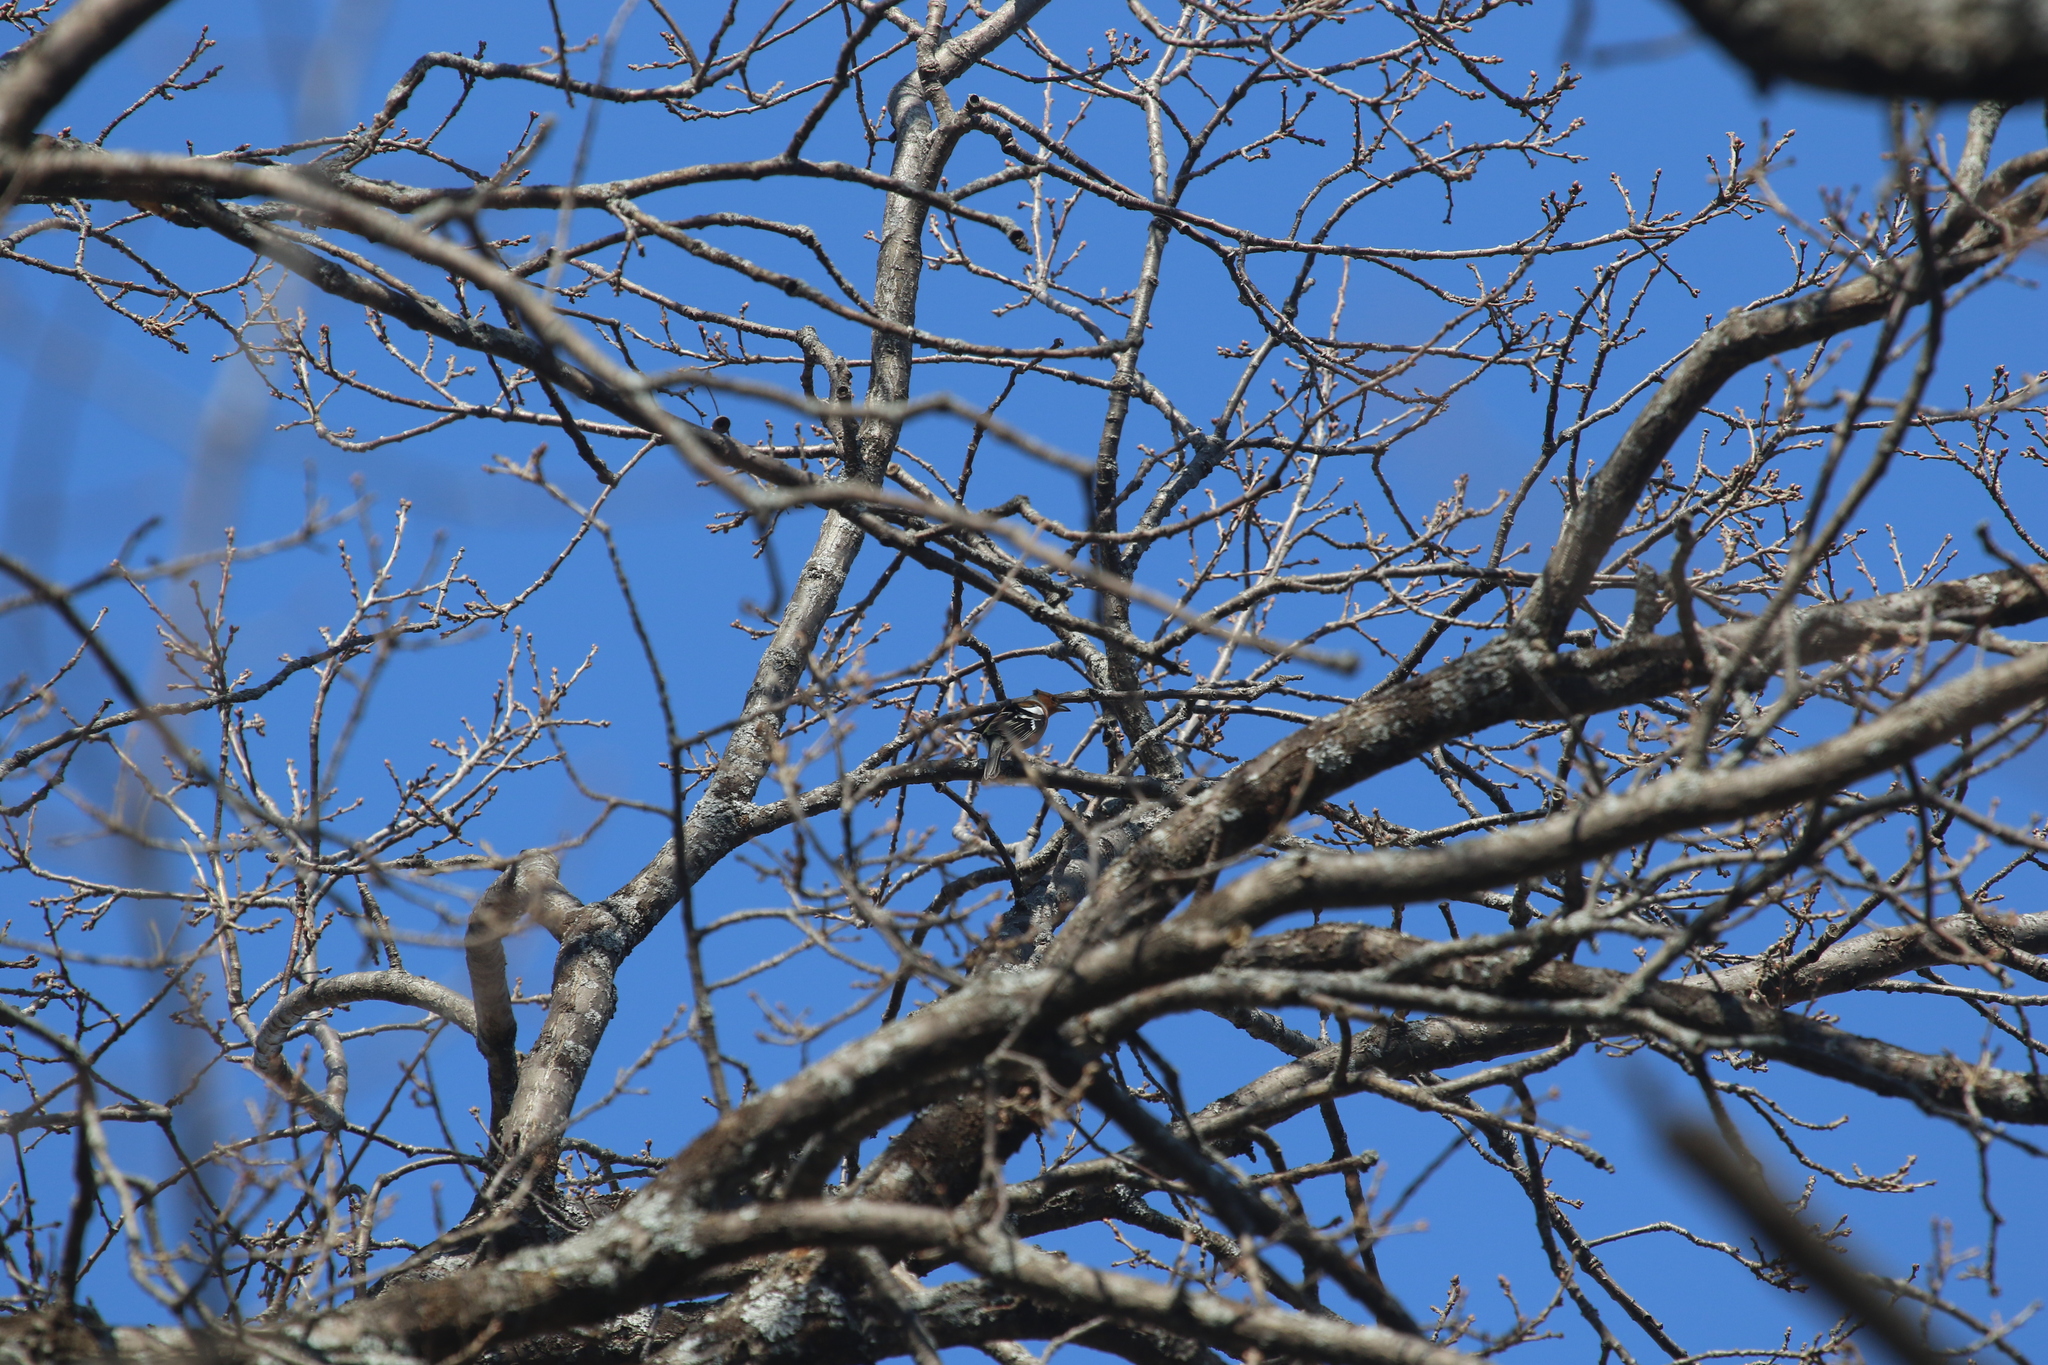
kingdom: Animalia
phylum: Chordata
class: Aves
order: Passeriformes
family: Fringillidae
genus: Fringilla
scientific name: Fringilla coelebs
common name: Common chaffinch
